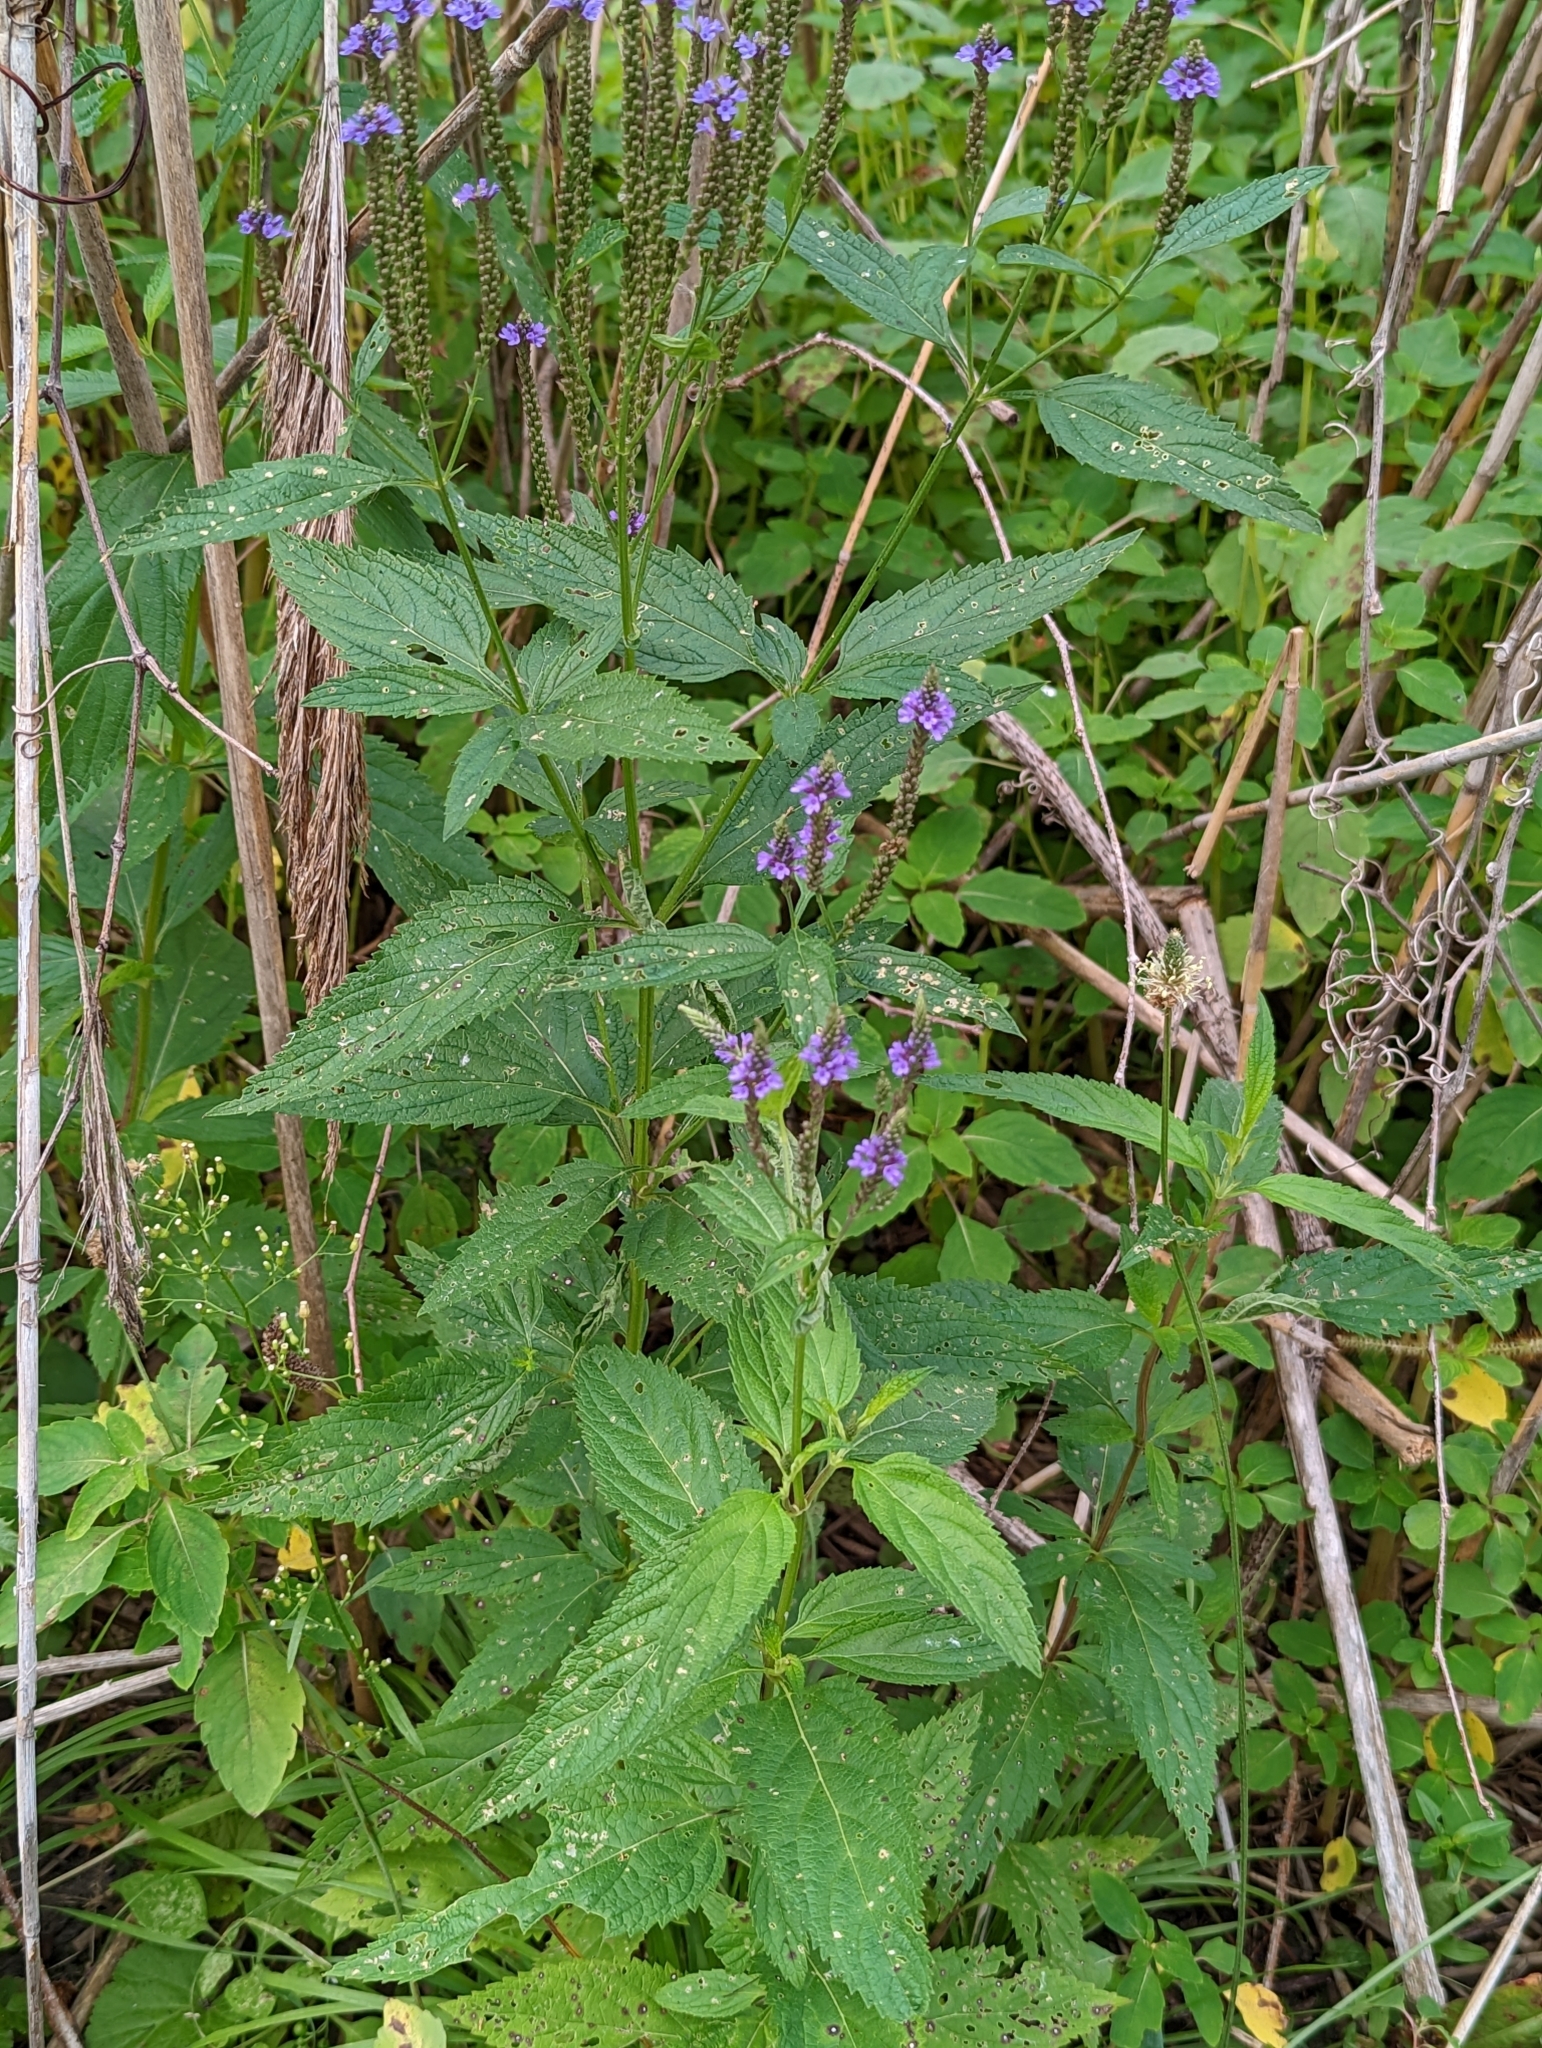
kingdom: Plantae
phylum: Tracheophyta
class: Magnoliopsida
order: Lamiales
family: Verbenaceae
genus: Verbena
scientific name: Verbena hastata
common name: American blue vervain
